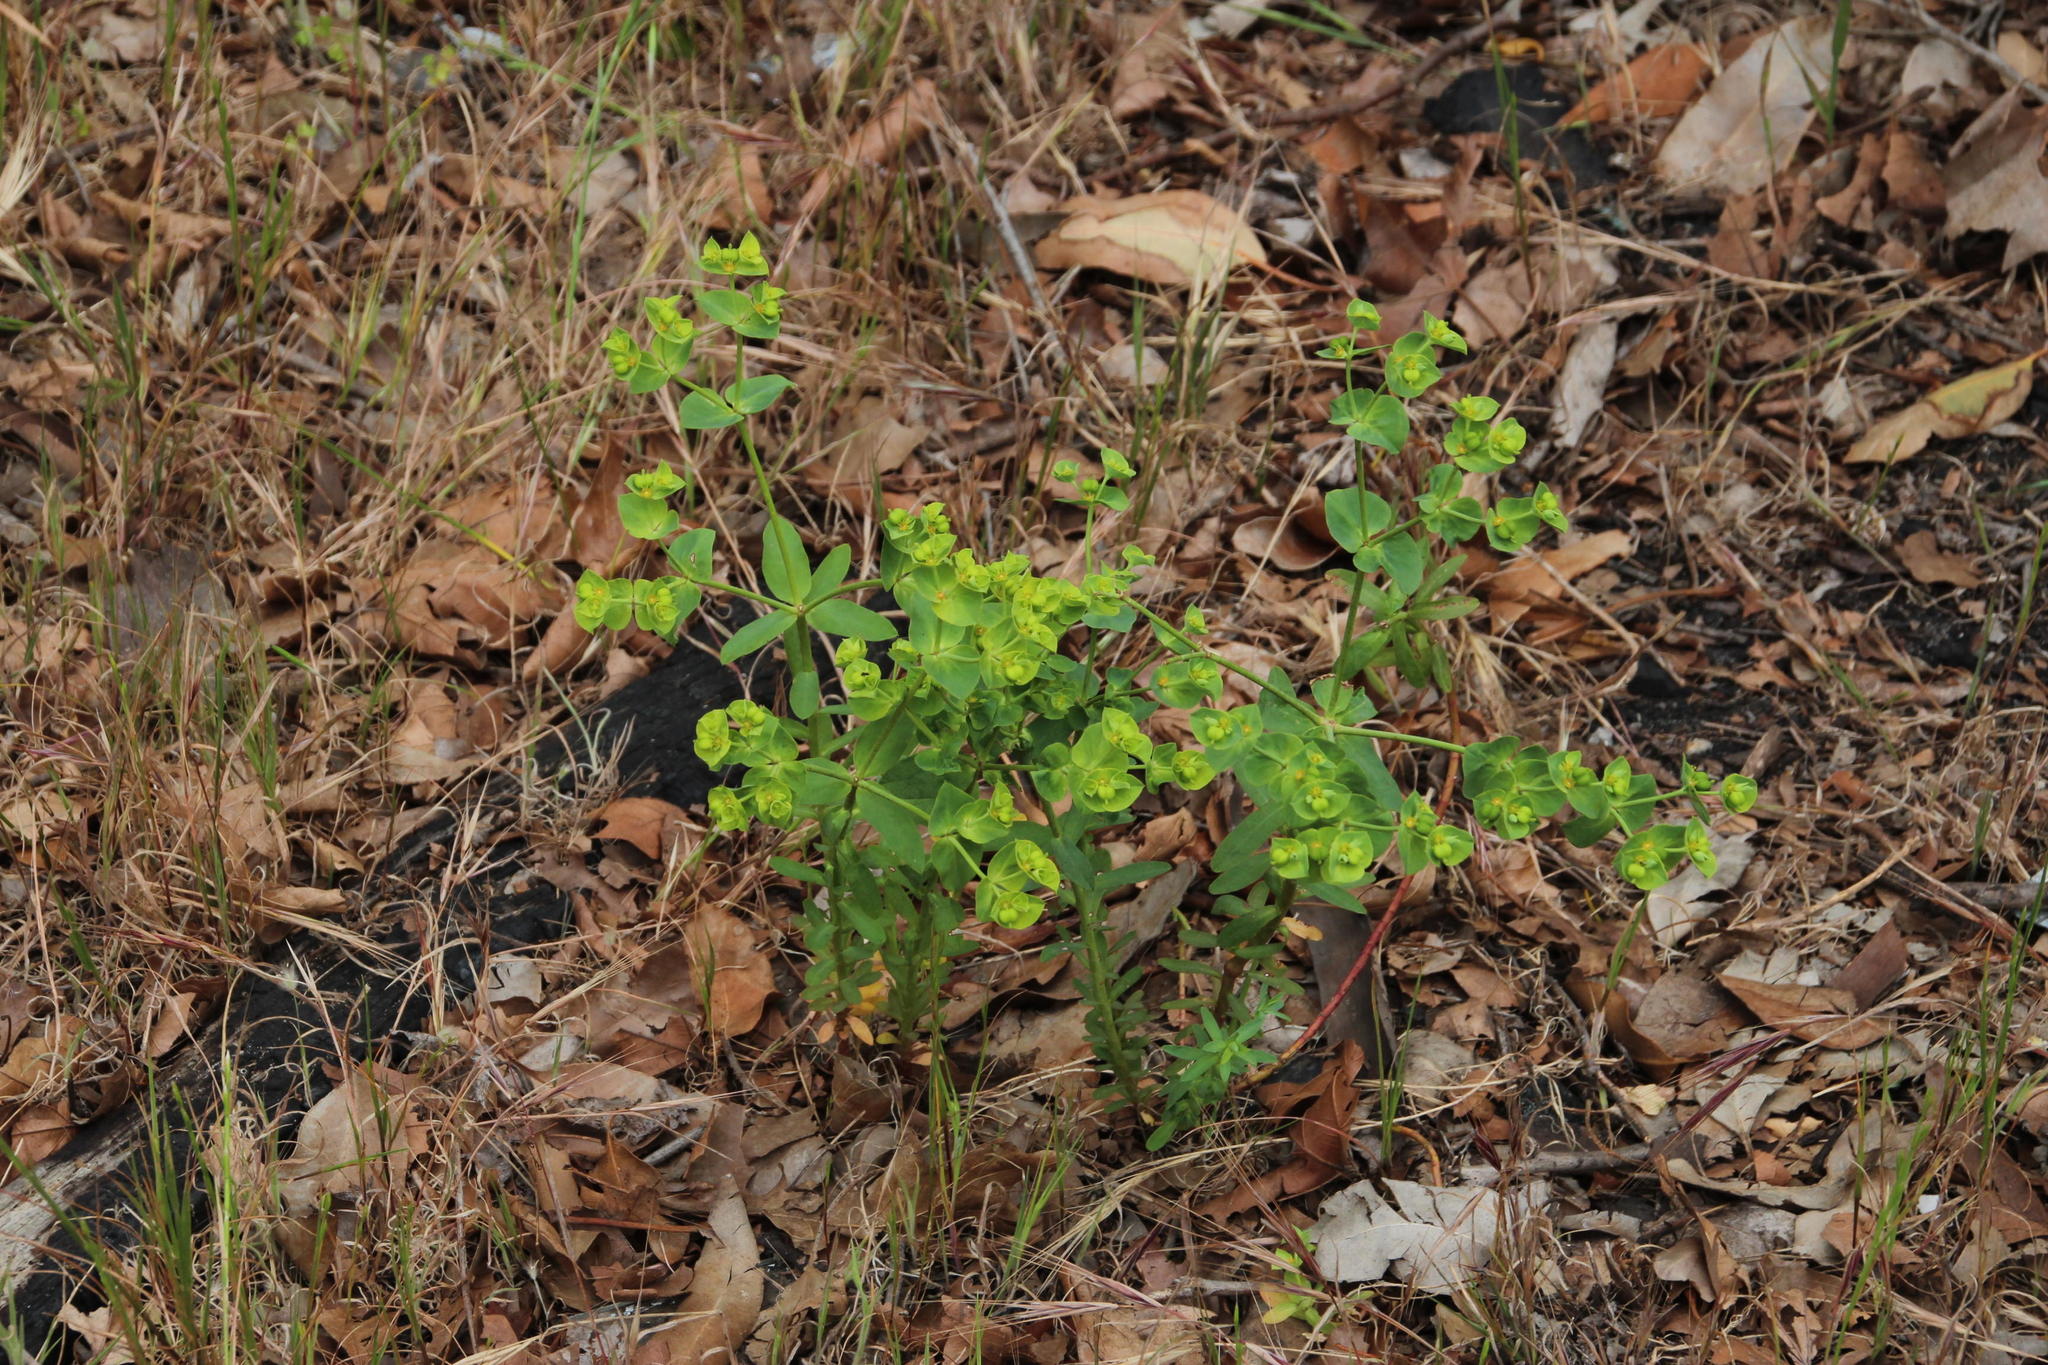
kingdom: Plantae
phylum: Tracheophyta
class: Magnoliopsida
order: Malpighiales
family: Euphorbiaceae
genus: Euphorbia
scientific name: Euphorbia terracina
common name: Geraldton carnation weed
